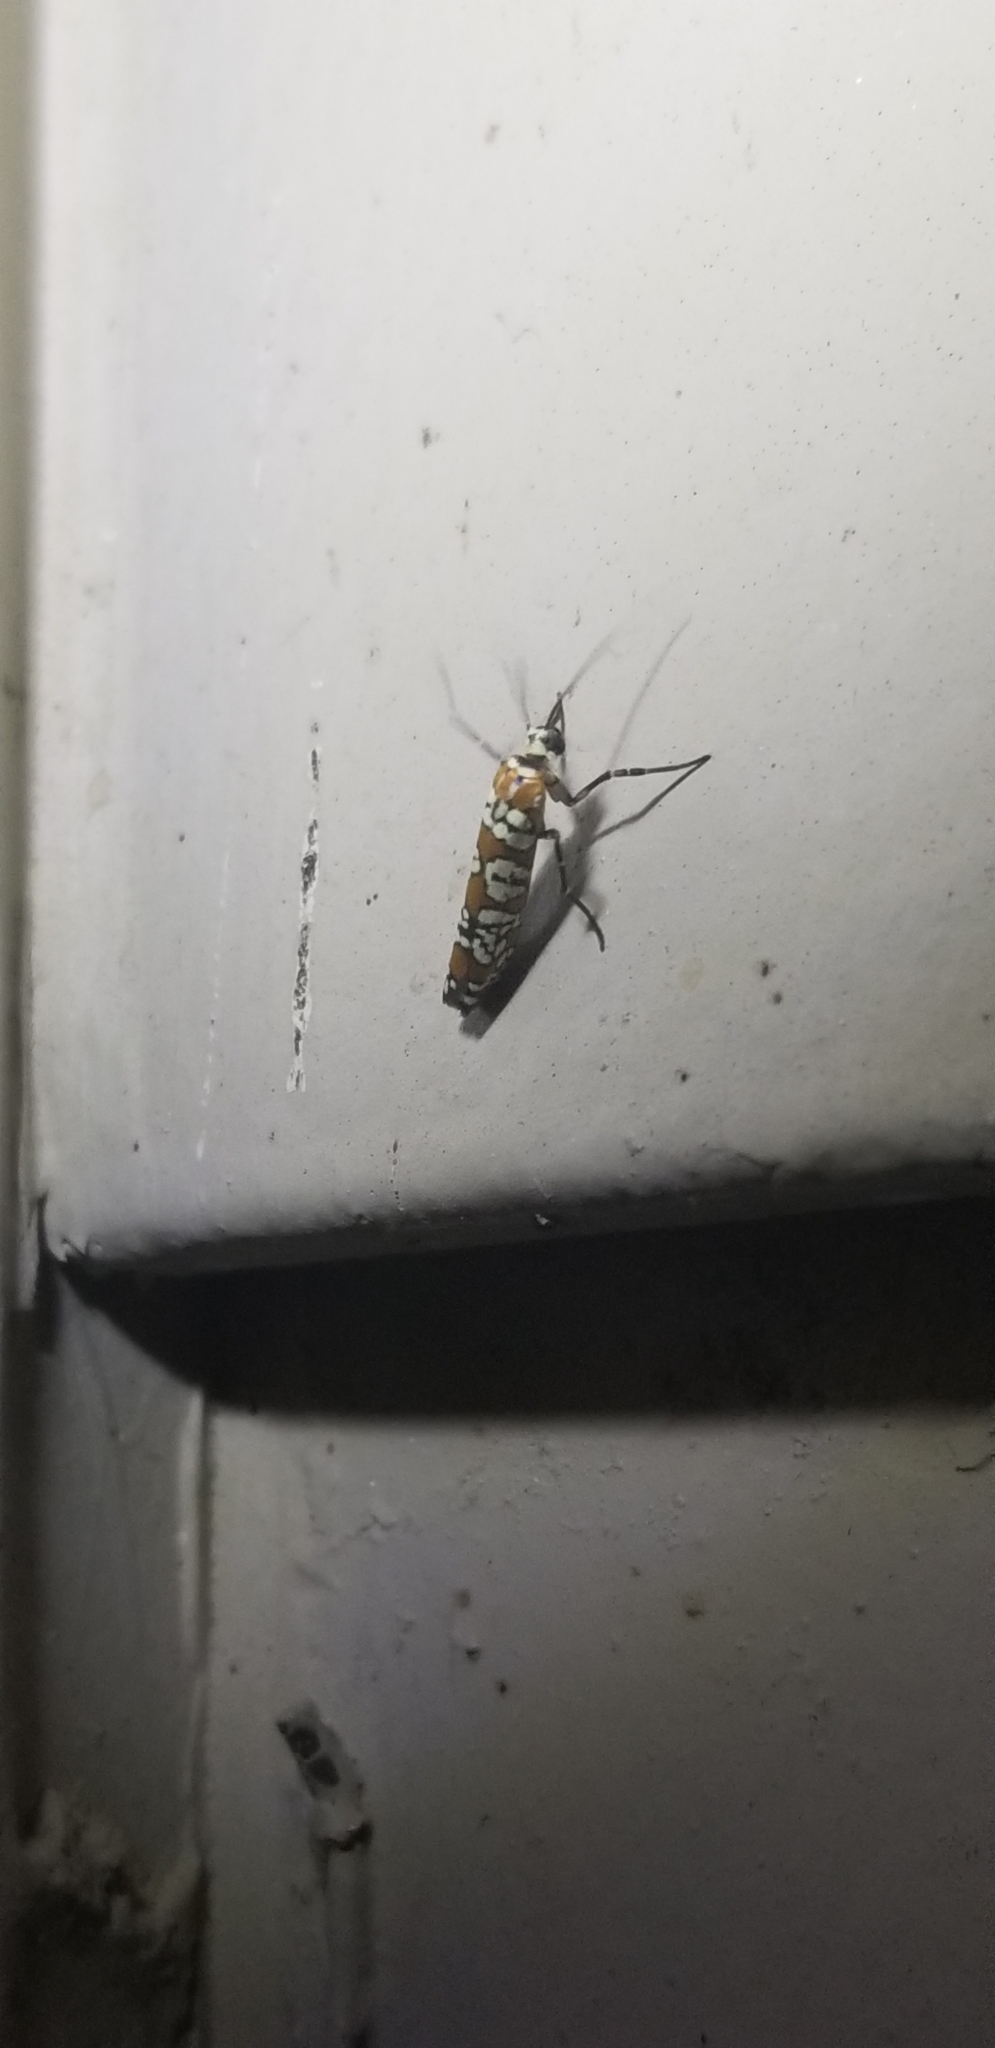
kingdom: Animalia
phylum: Arthropoda
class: Insecta
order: Lepidoptera
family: Attevidae
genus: Atteva
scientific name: Atteva punctella
